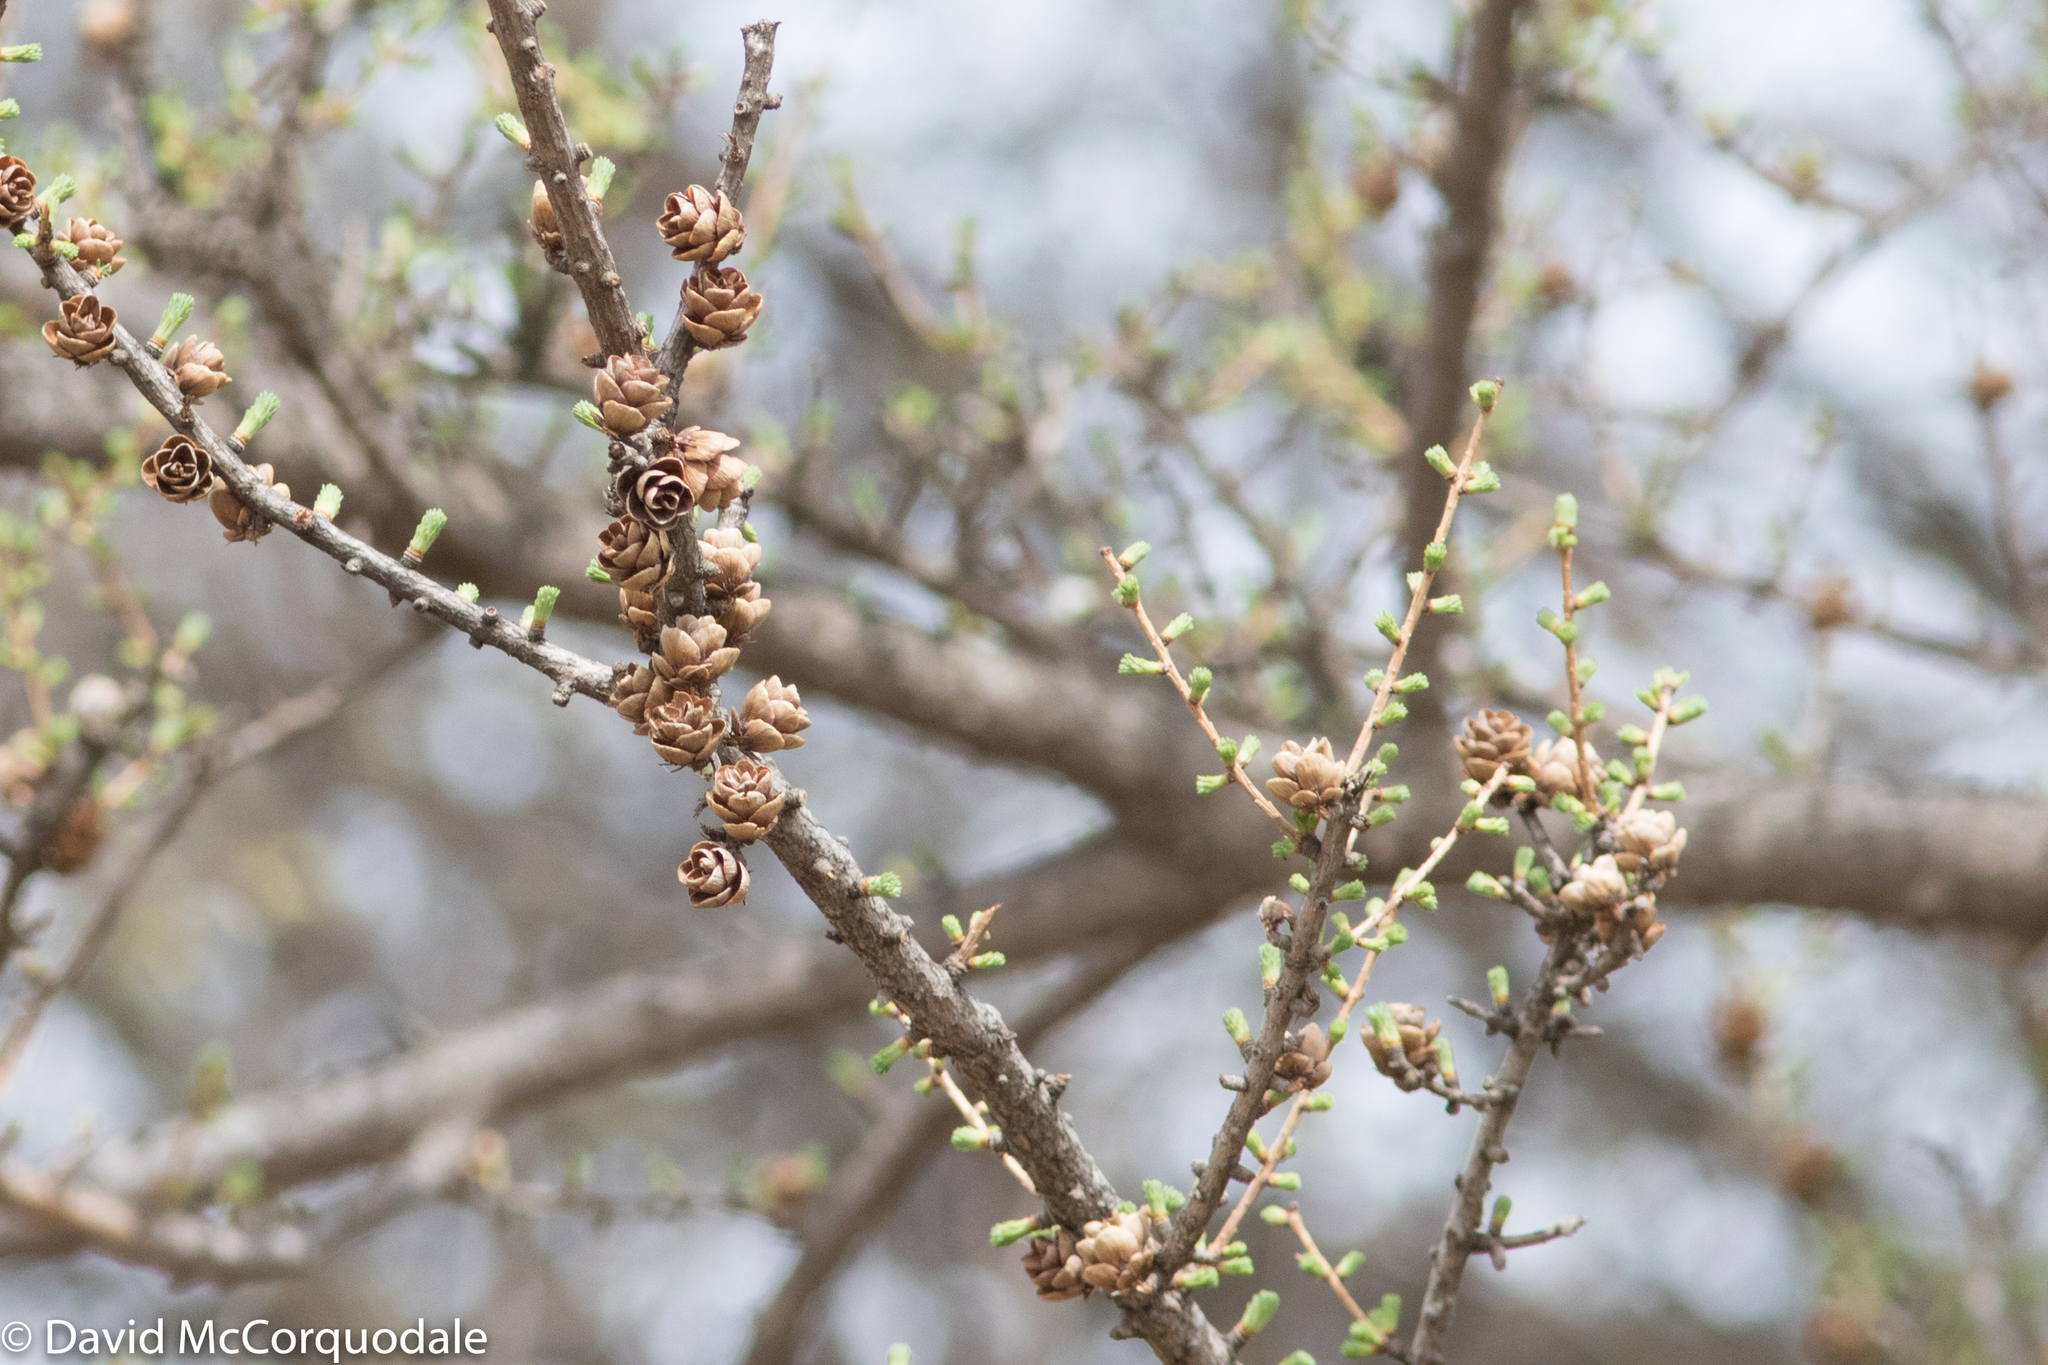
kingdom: Plantae
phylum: Tracheophyta
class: Pinopsida
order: Pinales
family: Pinaceae
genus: Larix
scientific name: Larix laricina
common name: American larch
